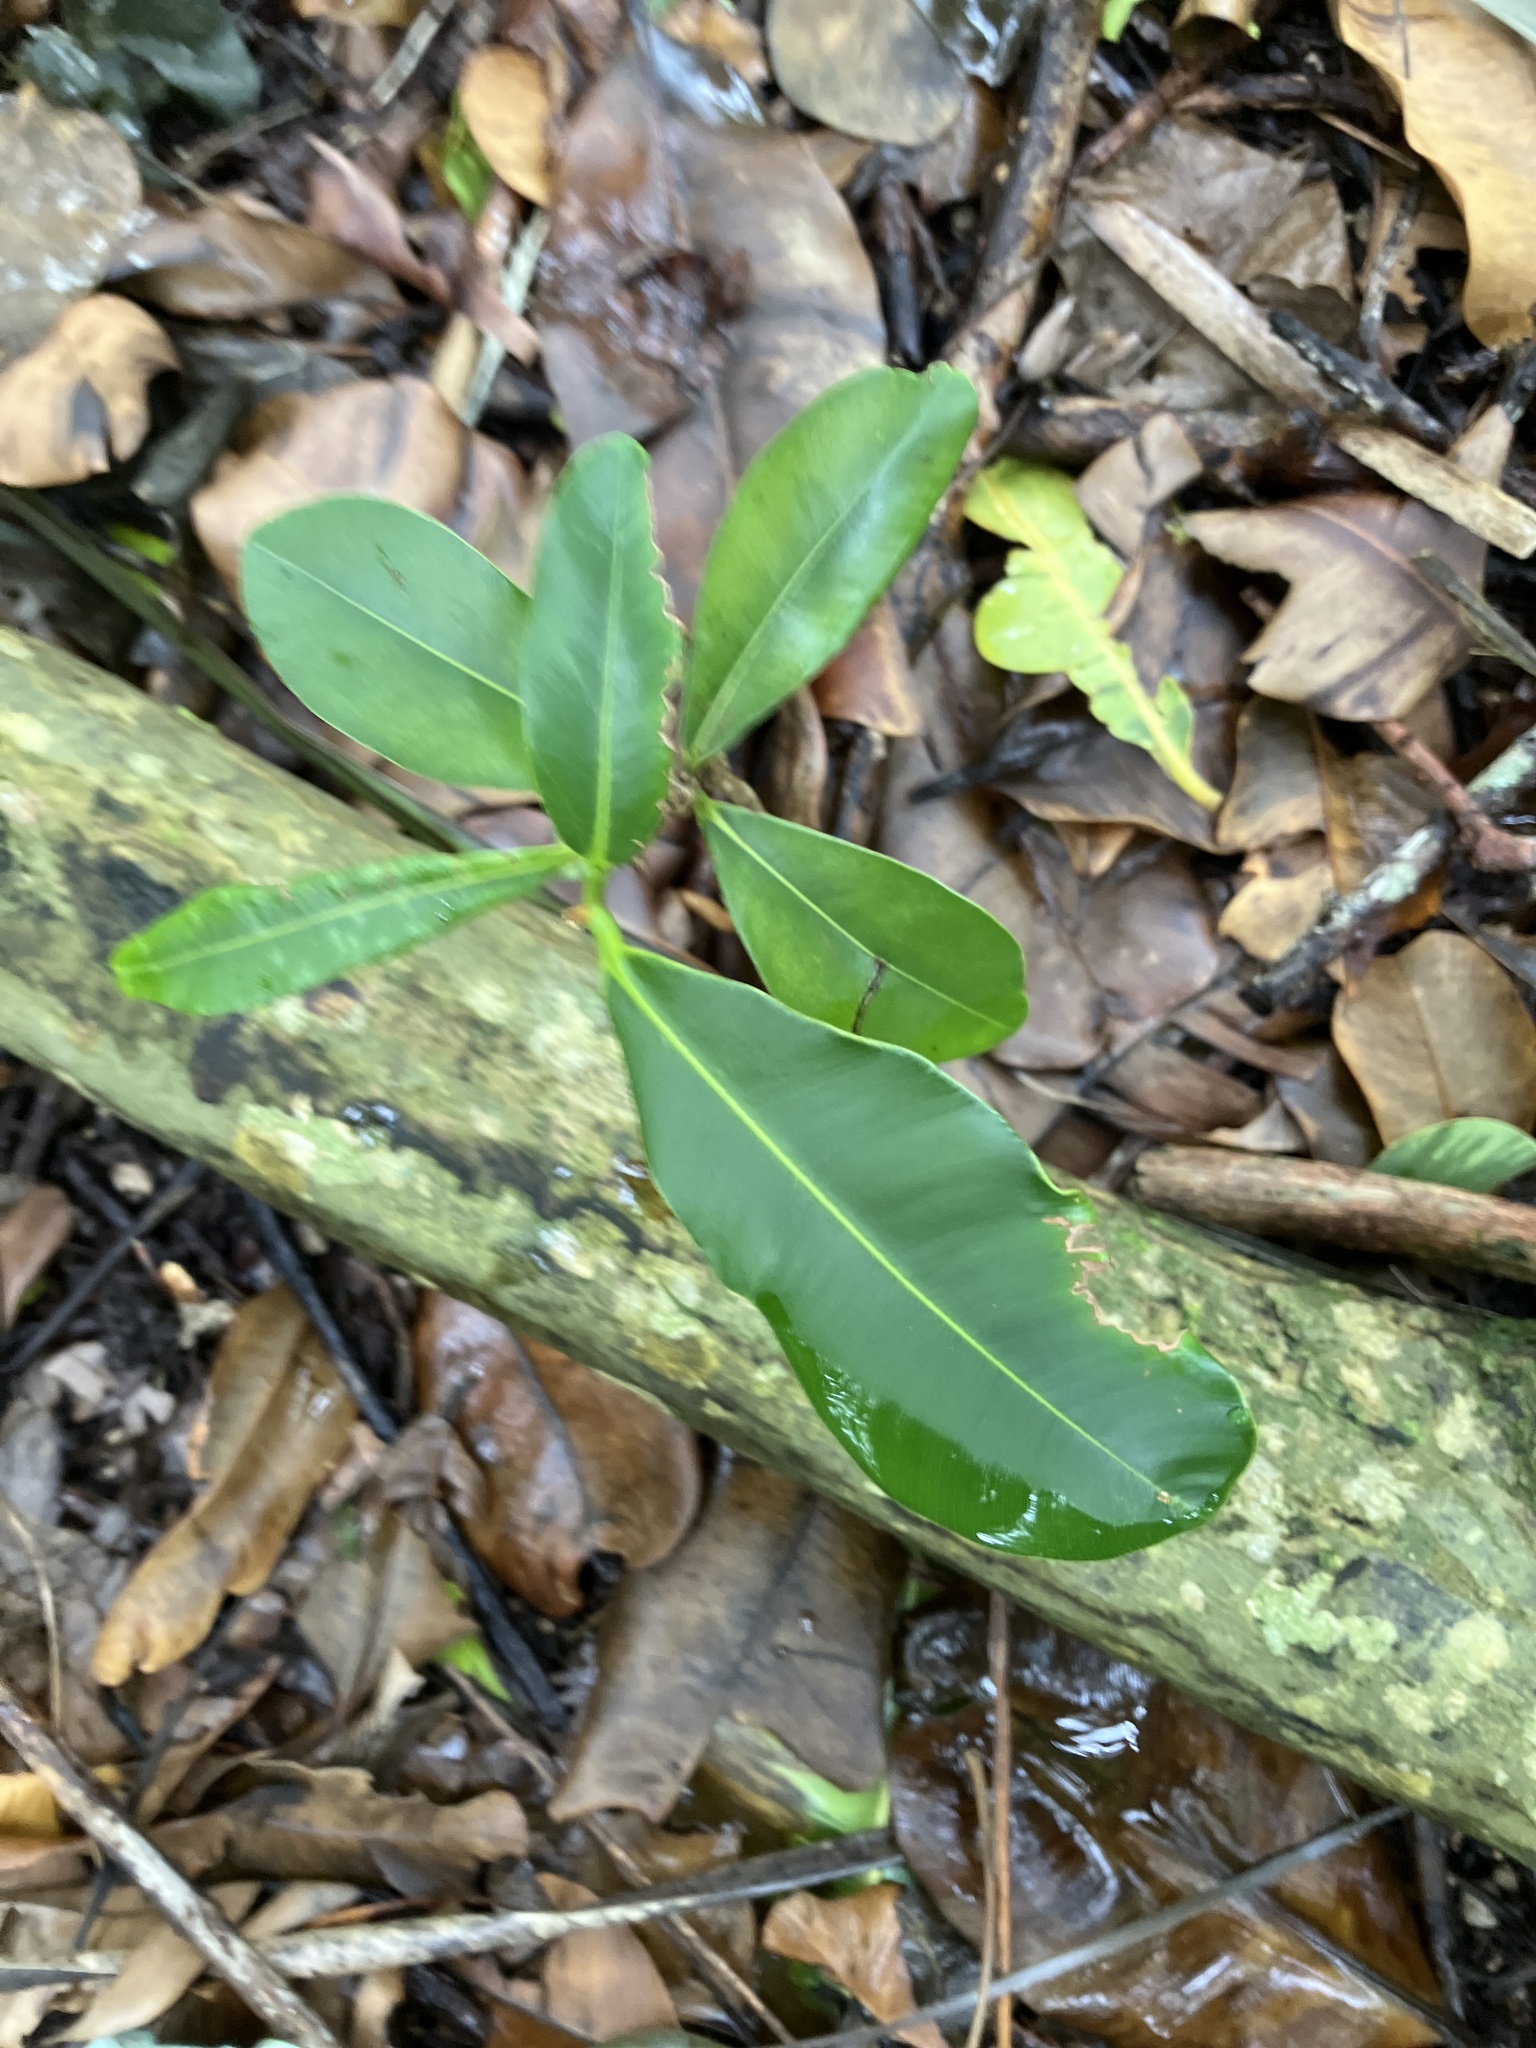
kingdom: Plantae
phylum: Tracheophyta
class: Magnoliopsida
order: Malpighiales
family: Calophyllaceae
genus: Calophyllum
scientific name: Calophyllum inophyllum
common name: Alexandrian laurel
